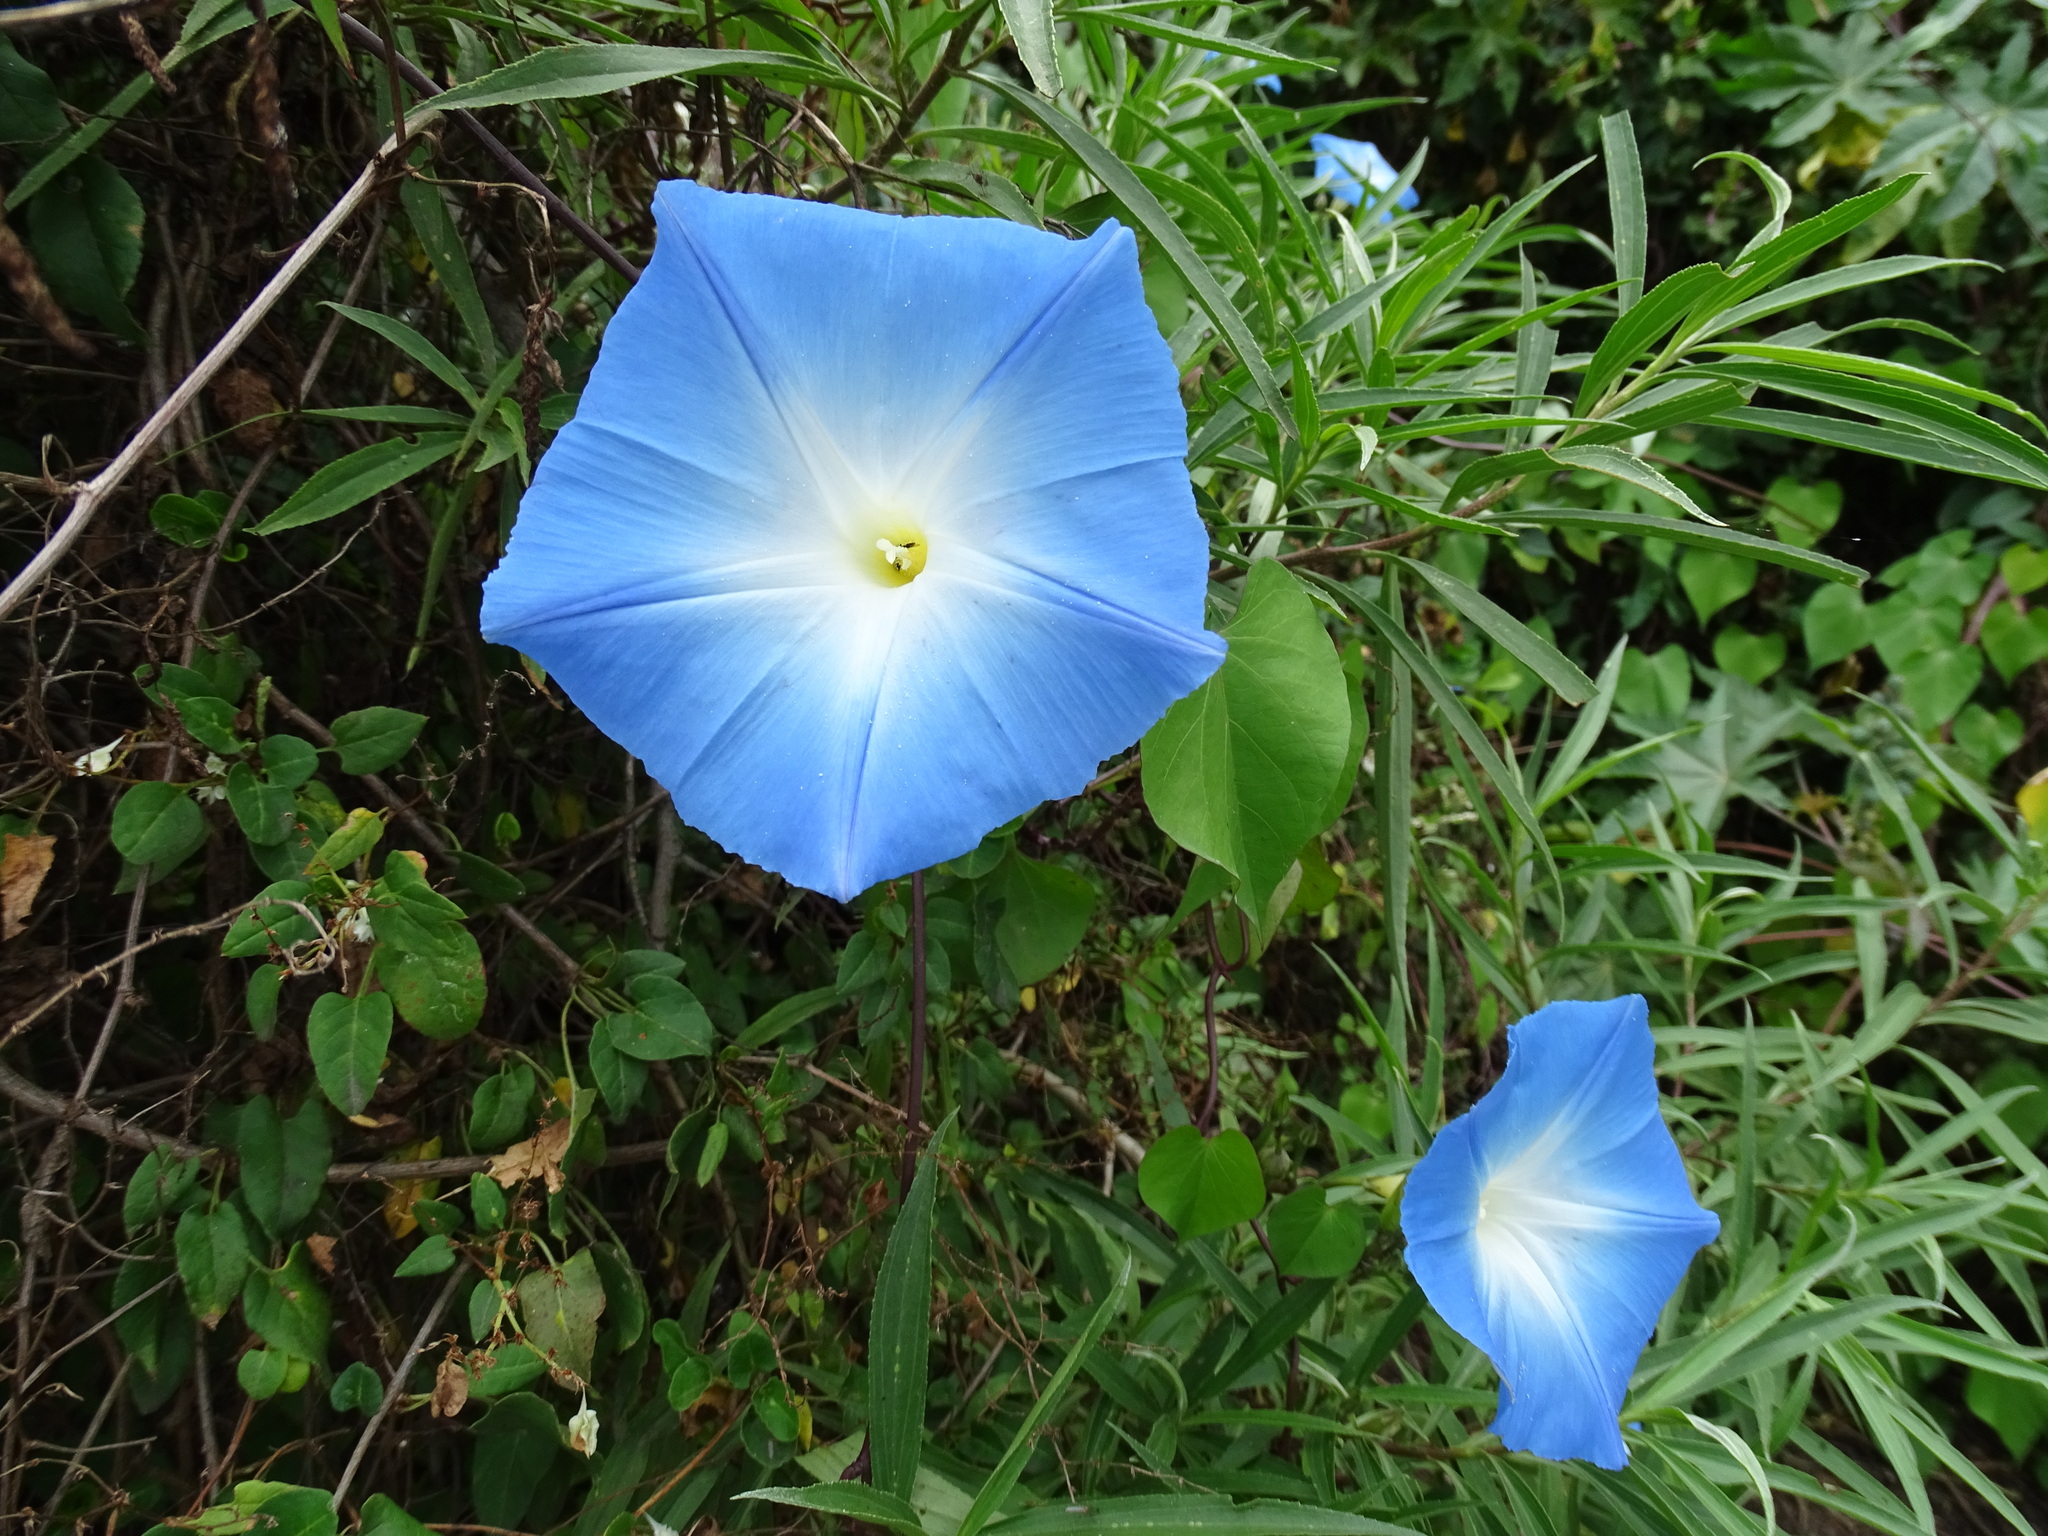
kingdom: Plantae
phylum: Tracheophyta
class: Magnoliopsida
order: Solanales
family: Convolvulaceae
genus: Ipomoea
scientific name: Ipomoea tricolor
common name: Morning-glory
